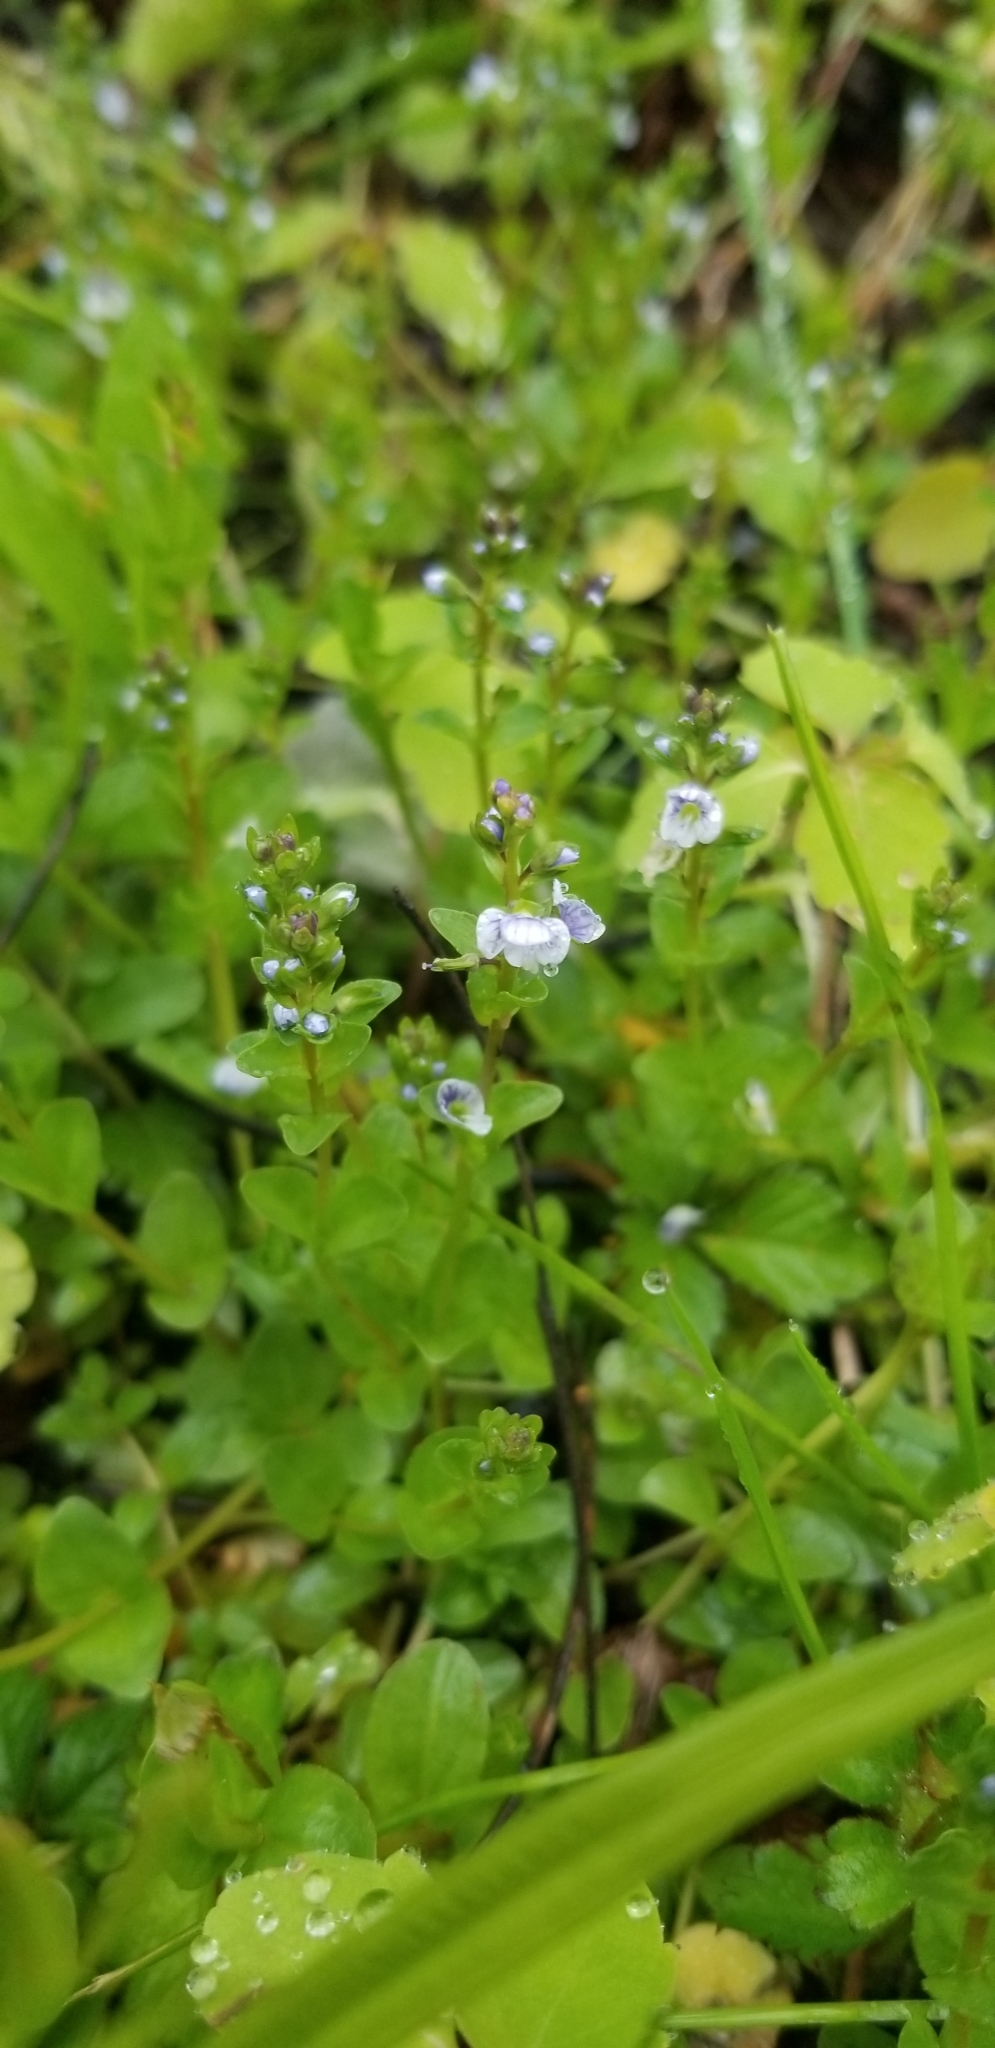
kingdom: Plantae
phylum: Tracheophyta
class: Magnoliopsida
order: Lamiales
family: Plantaginaceae
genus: Veronica
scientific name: Veronica serpyllifolia
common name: Thyme-leaved speedwell
